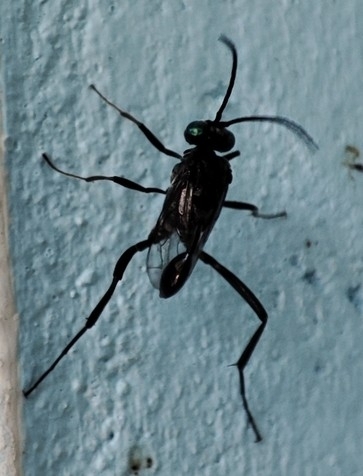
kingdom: Animalia
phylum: Arthropoda
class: Insecta
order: Hymenoptera
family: Evaniidae
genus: Evania
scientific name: Evania appendigaster
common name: Ensign wasp
